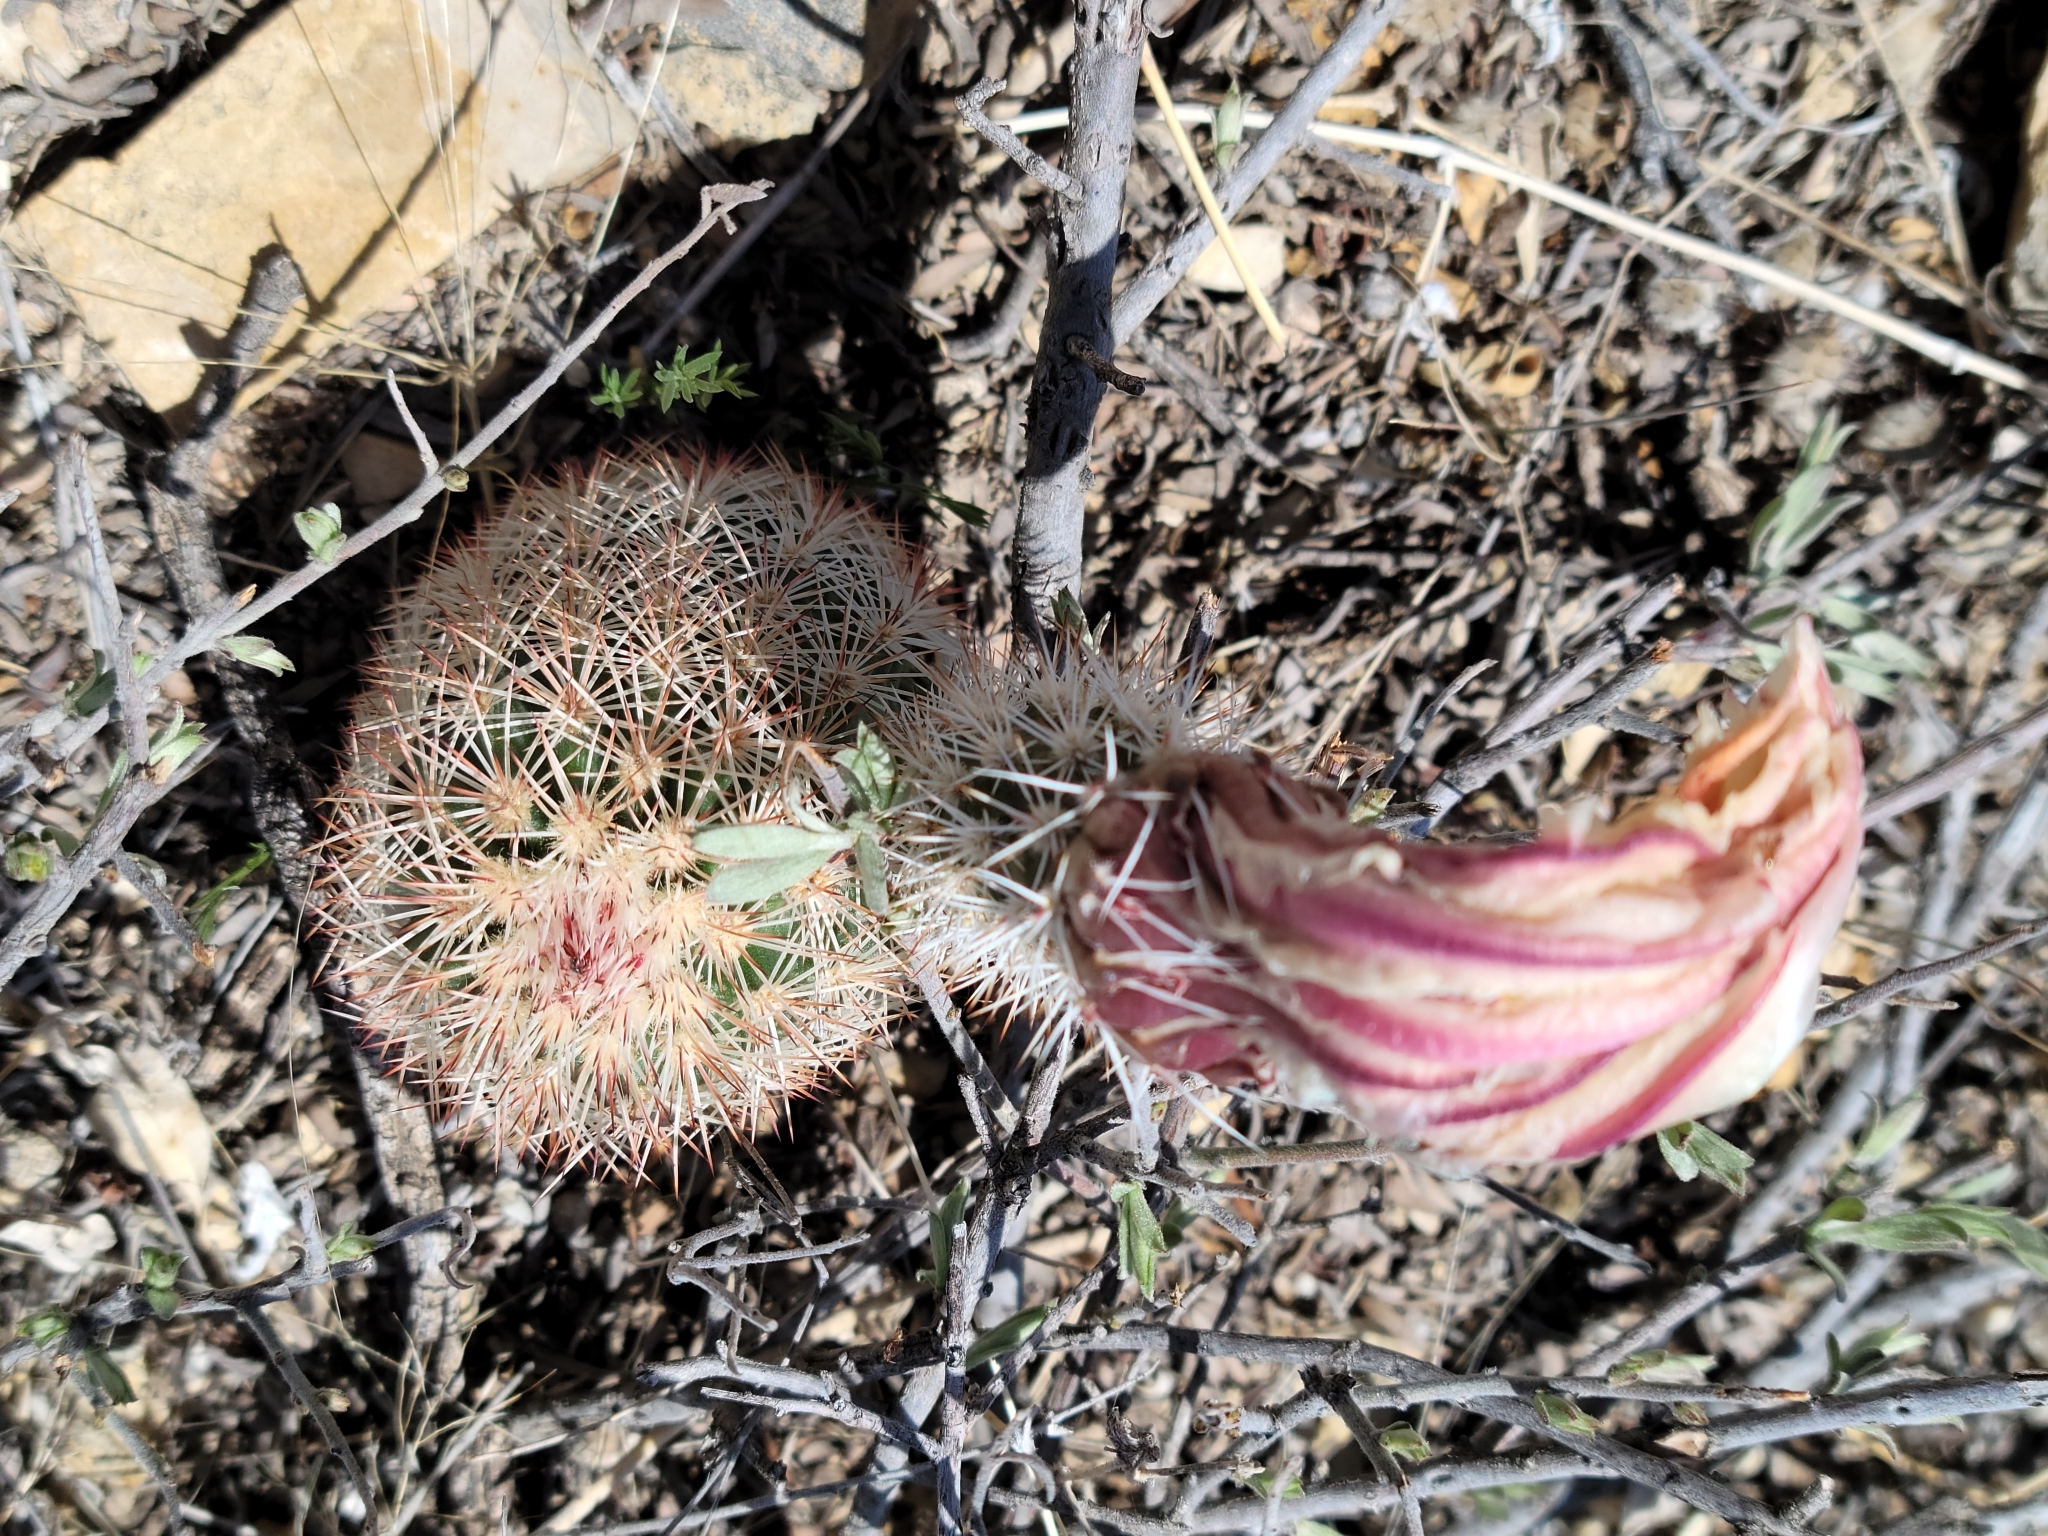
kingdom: Plantae
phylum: Tracheophyta
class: Magnoliopsida
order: Caryophyllales
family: Cactaceae
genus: Echinocereus
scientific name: Echinocereus dasyacanthus
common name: Spiny hedgehog cactus
